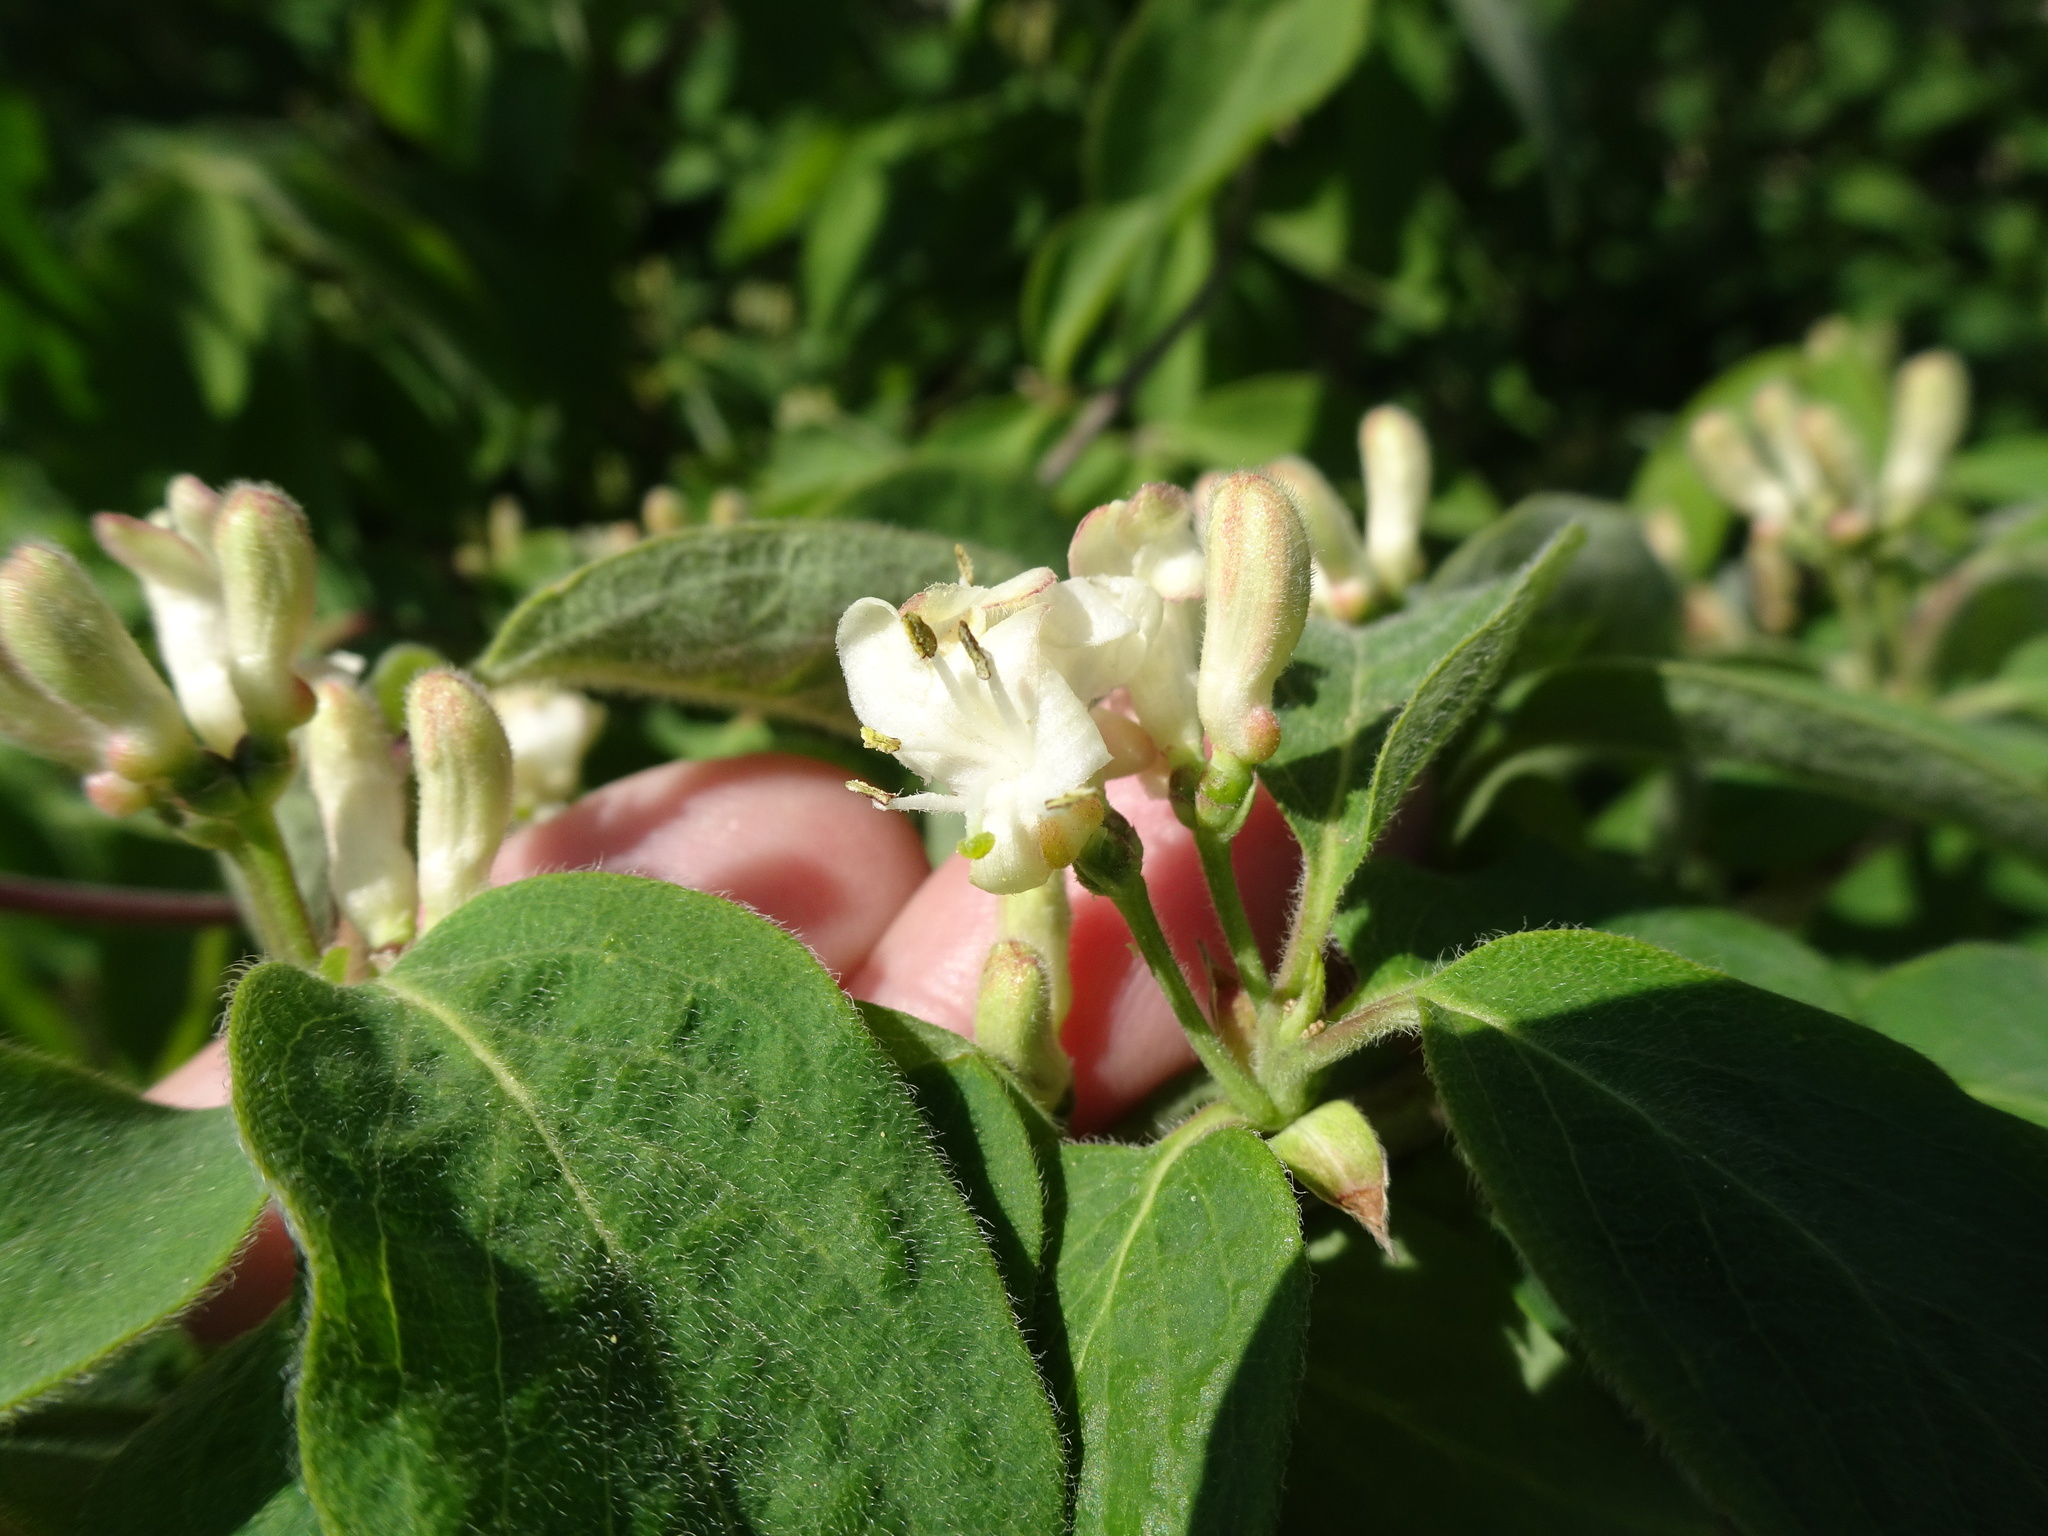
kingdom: Plantae
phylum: Tracheophyta
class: Magnoliopsida
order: Dipsacales
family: Caprifoliaceae
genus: Lonicera
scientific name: Lonicera xylosteum
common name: Fly honeysuckle
